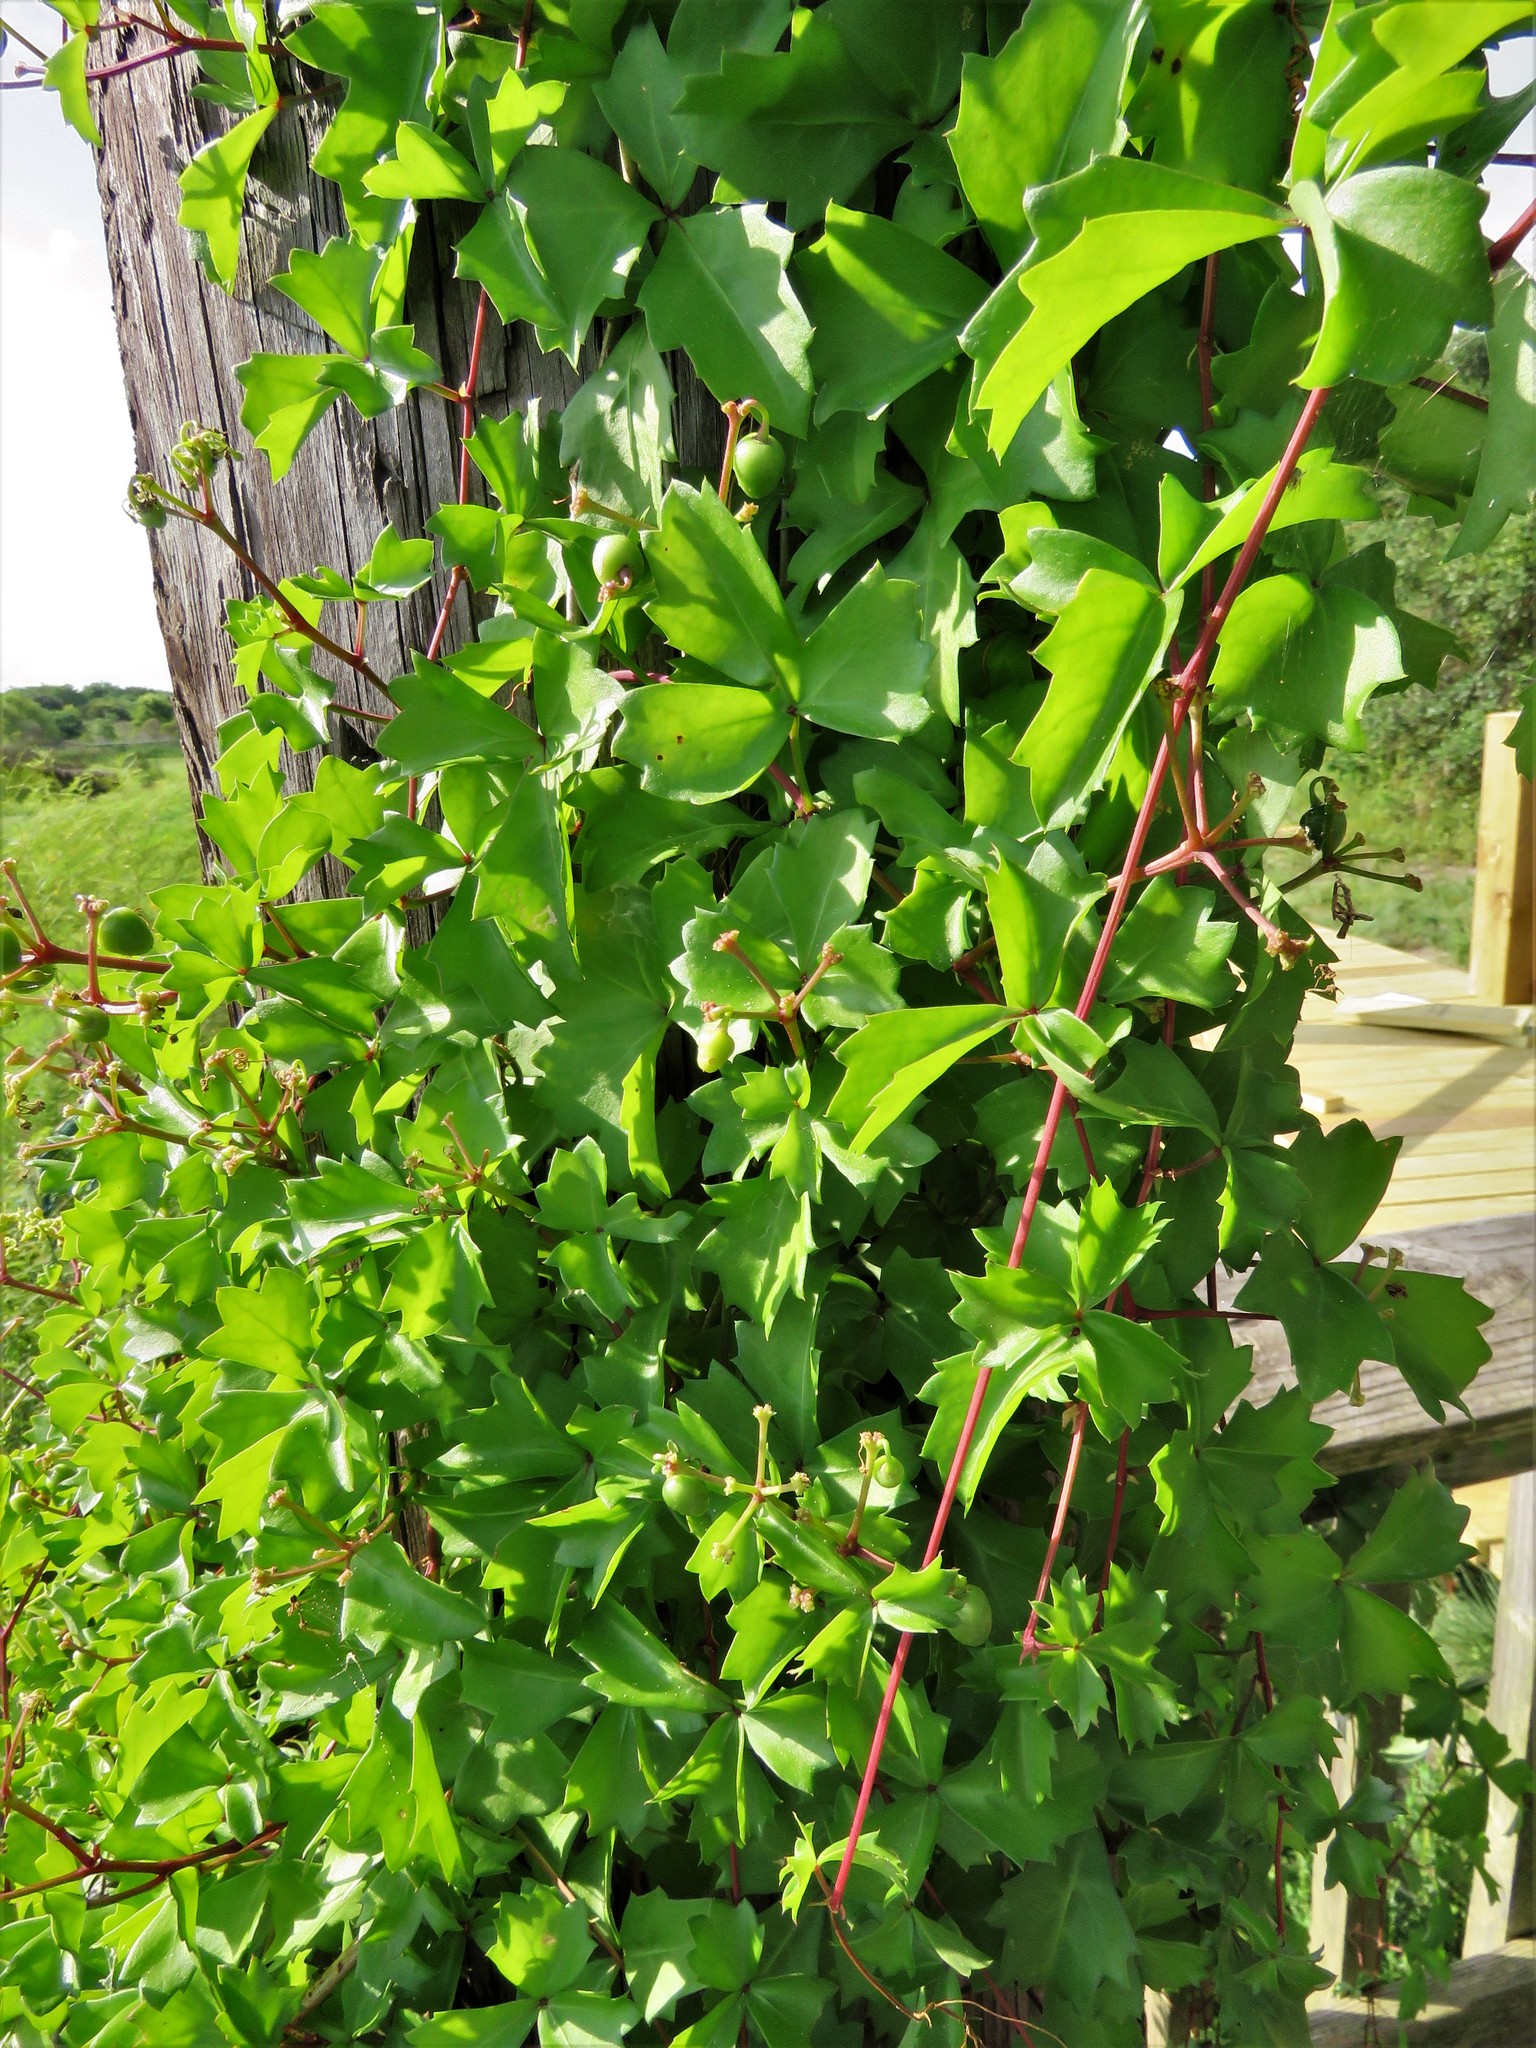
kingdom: Plantae
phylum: Tracheophyta
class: Magnoliopsida
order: Vitales
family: Vitaceae
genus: Cissus
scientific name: Cissus trifoliata
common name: Vine-sorrel
